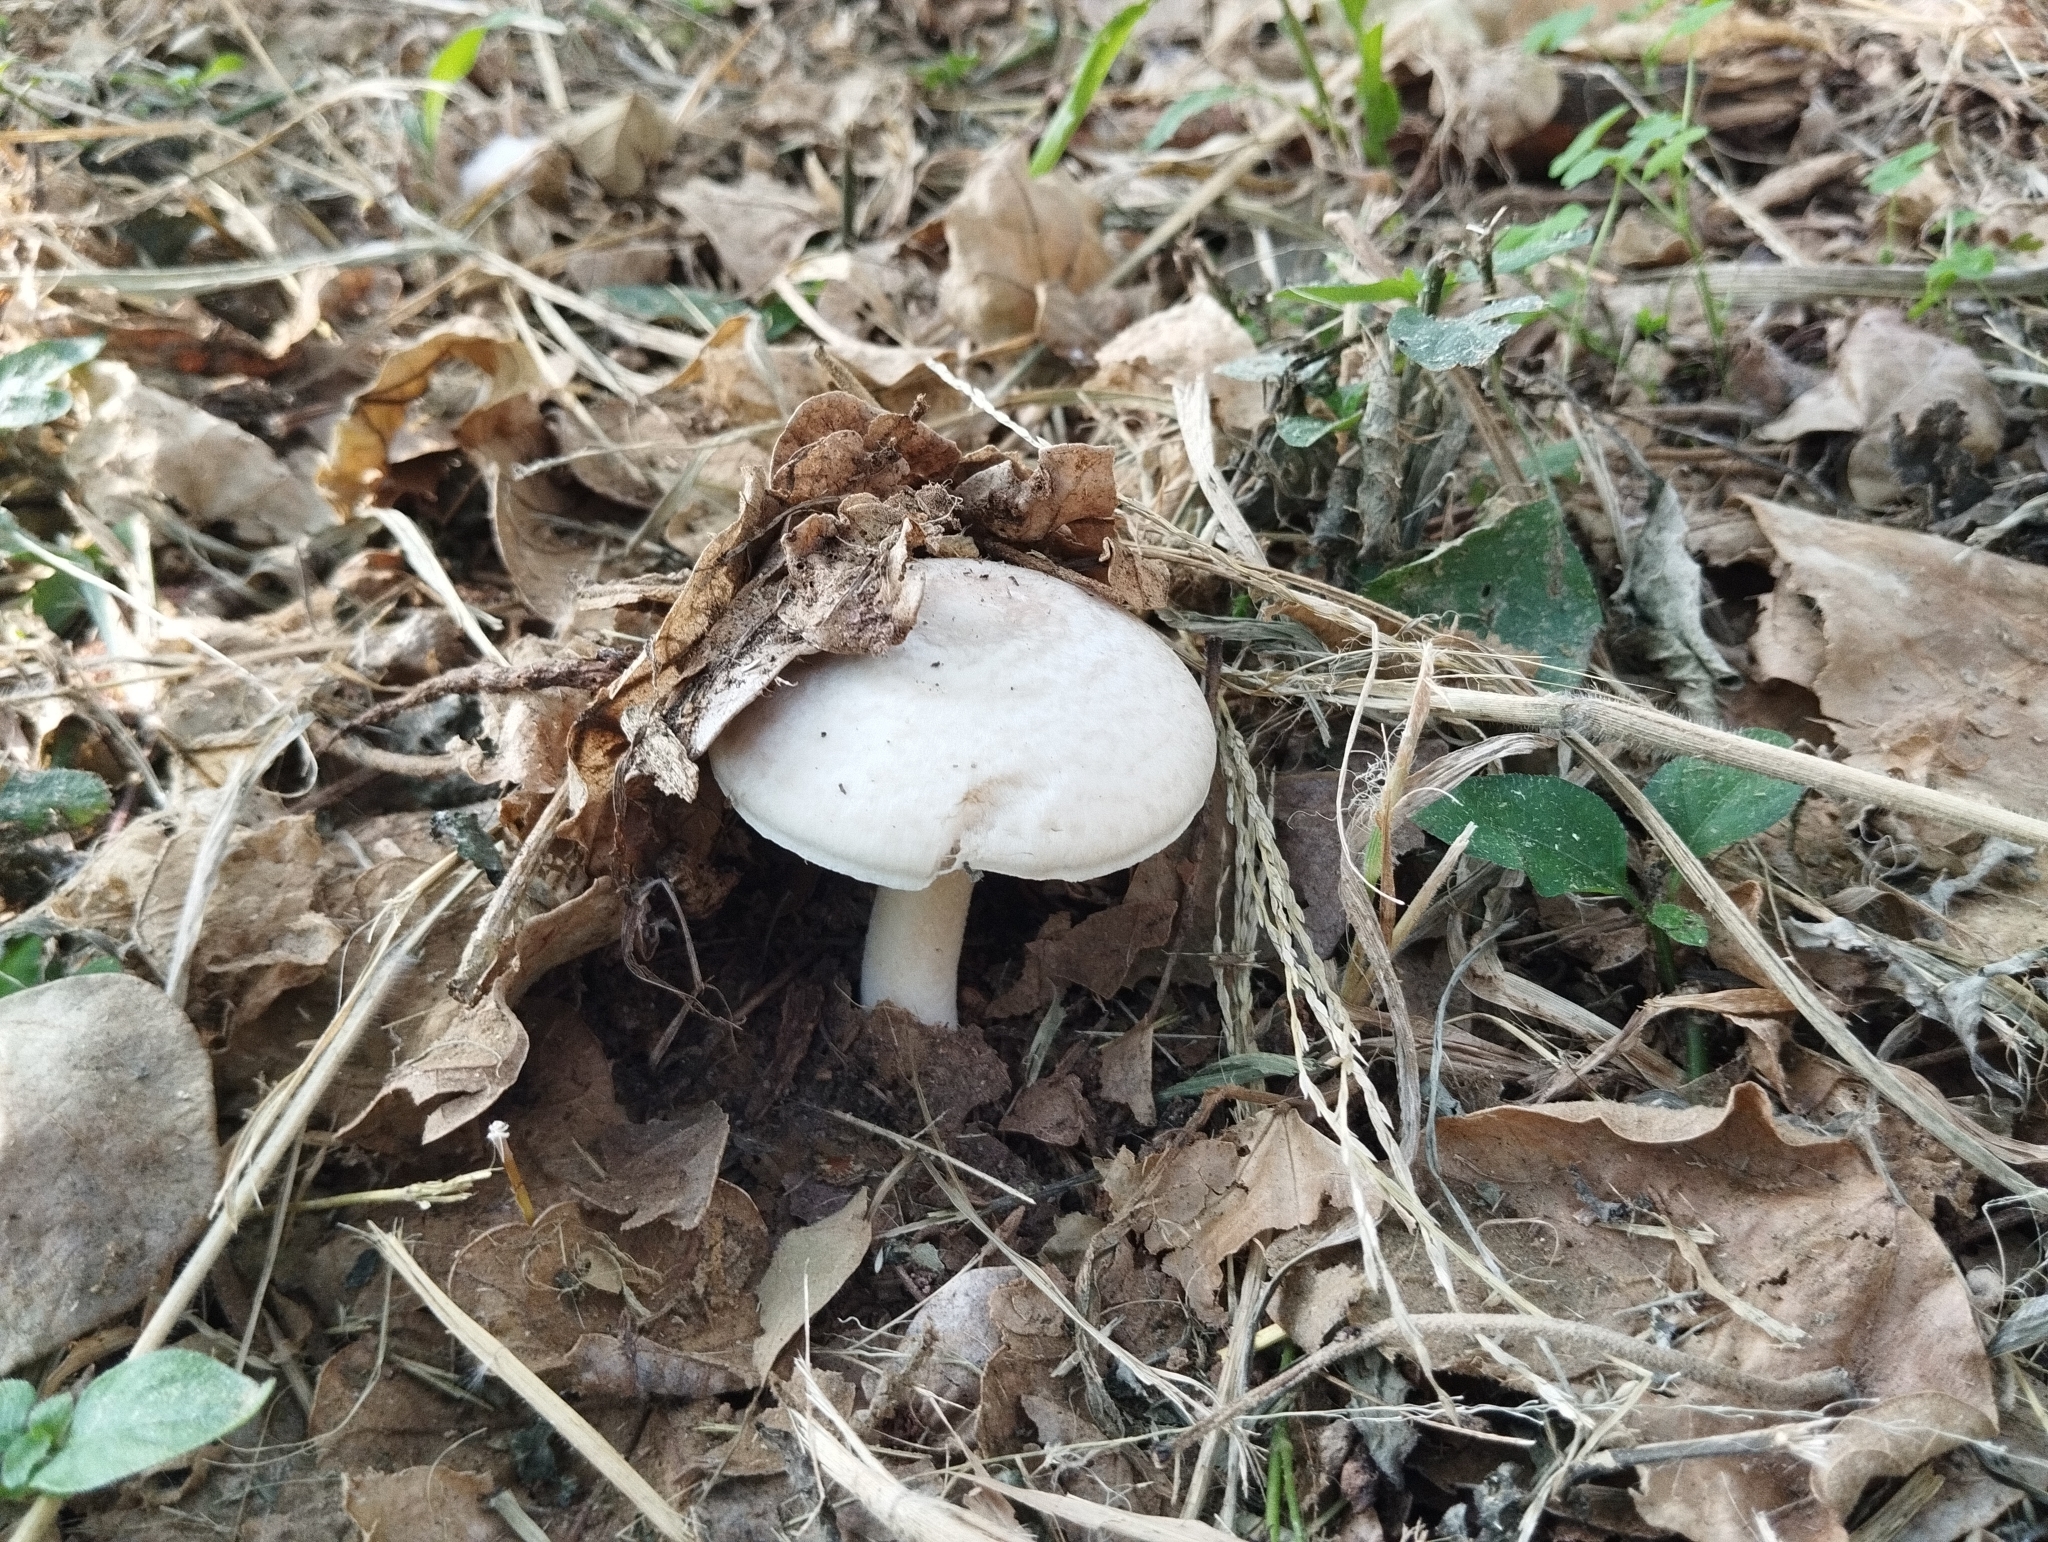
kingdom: Fungi
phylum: Basidiomycota
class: Agaricomycetes
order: Agaricales
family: Agaricaceae
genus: Agaricus
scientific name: Agaricus sylvicola
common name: Wood mushroom
